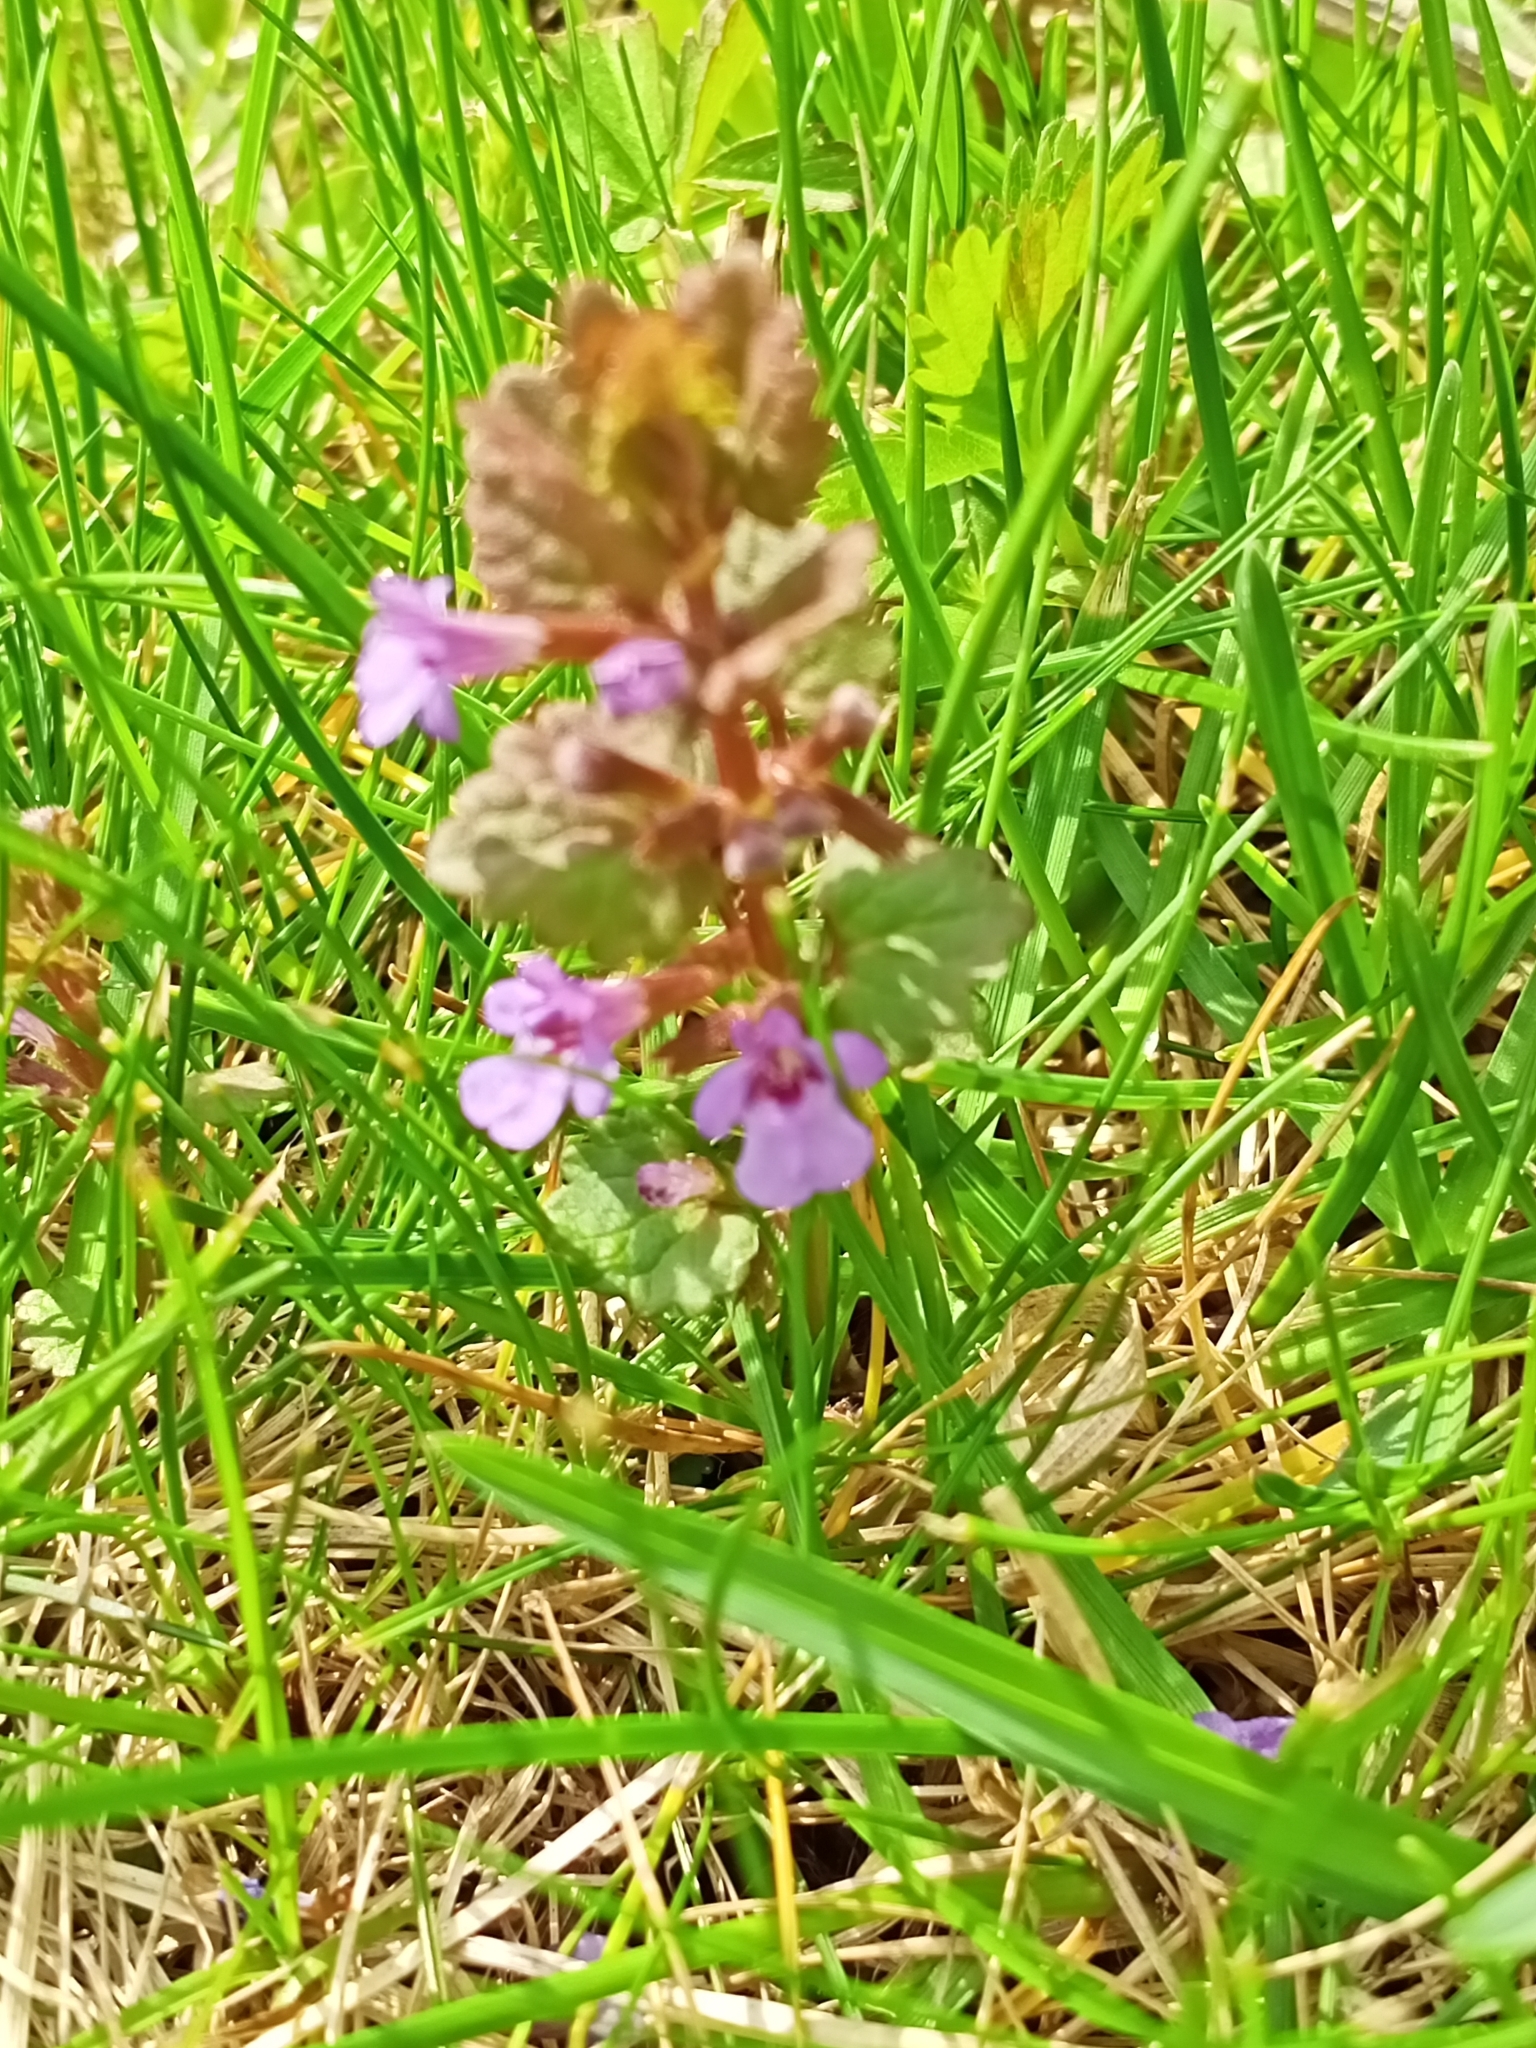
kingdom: Plantae
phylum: Tracheophyta
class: Magnoliopsida
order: Lamiales
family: Lamiaceae
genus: Glechoma
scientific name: Glechoma hederacea
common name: Ground ivy
